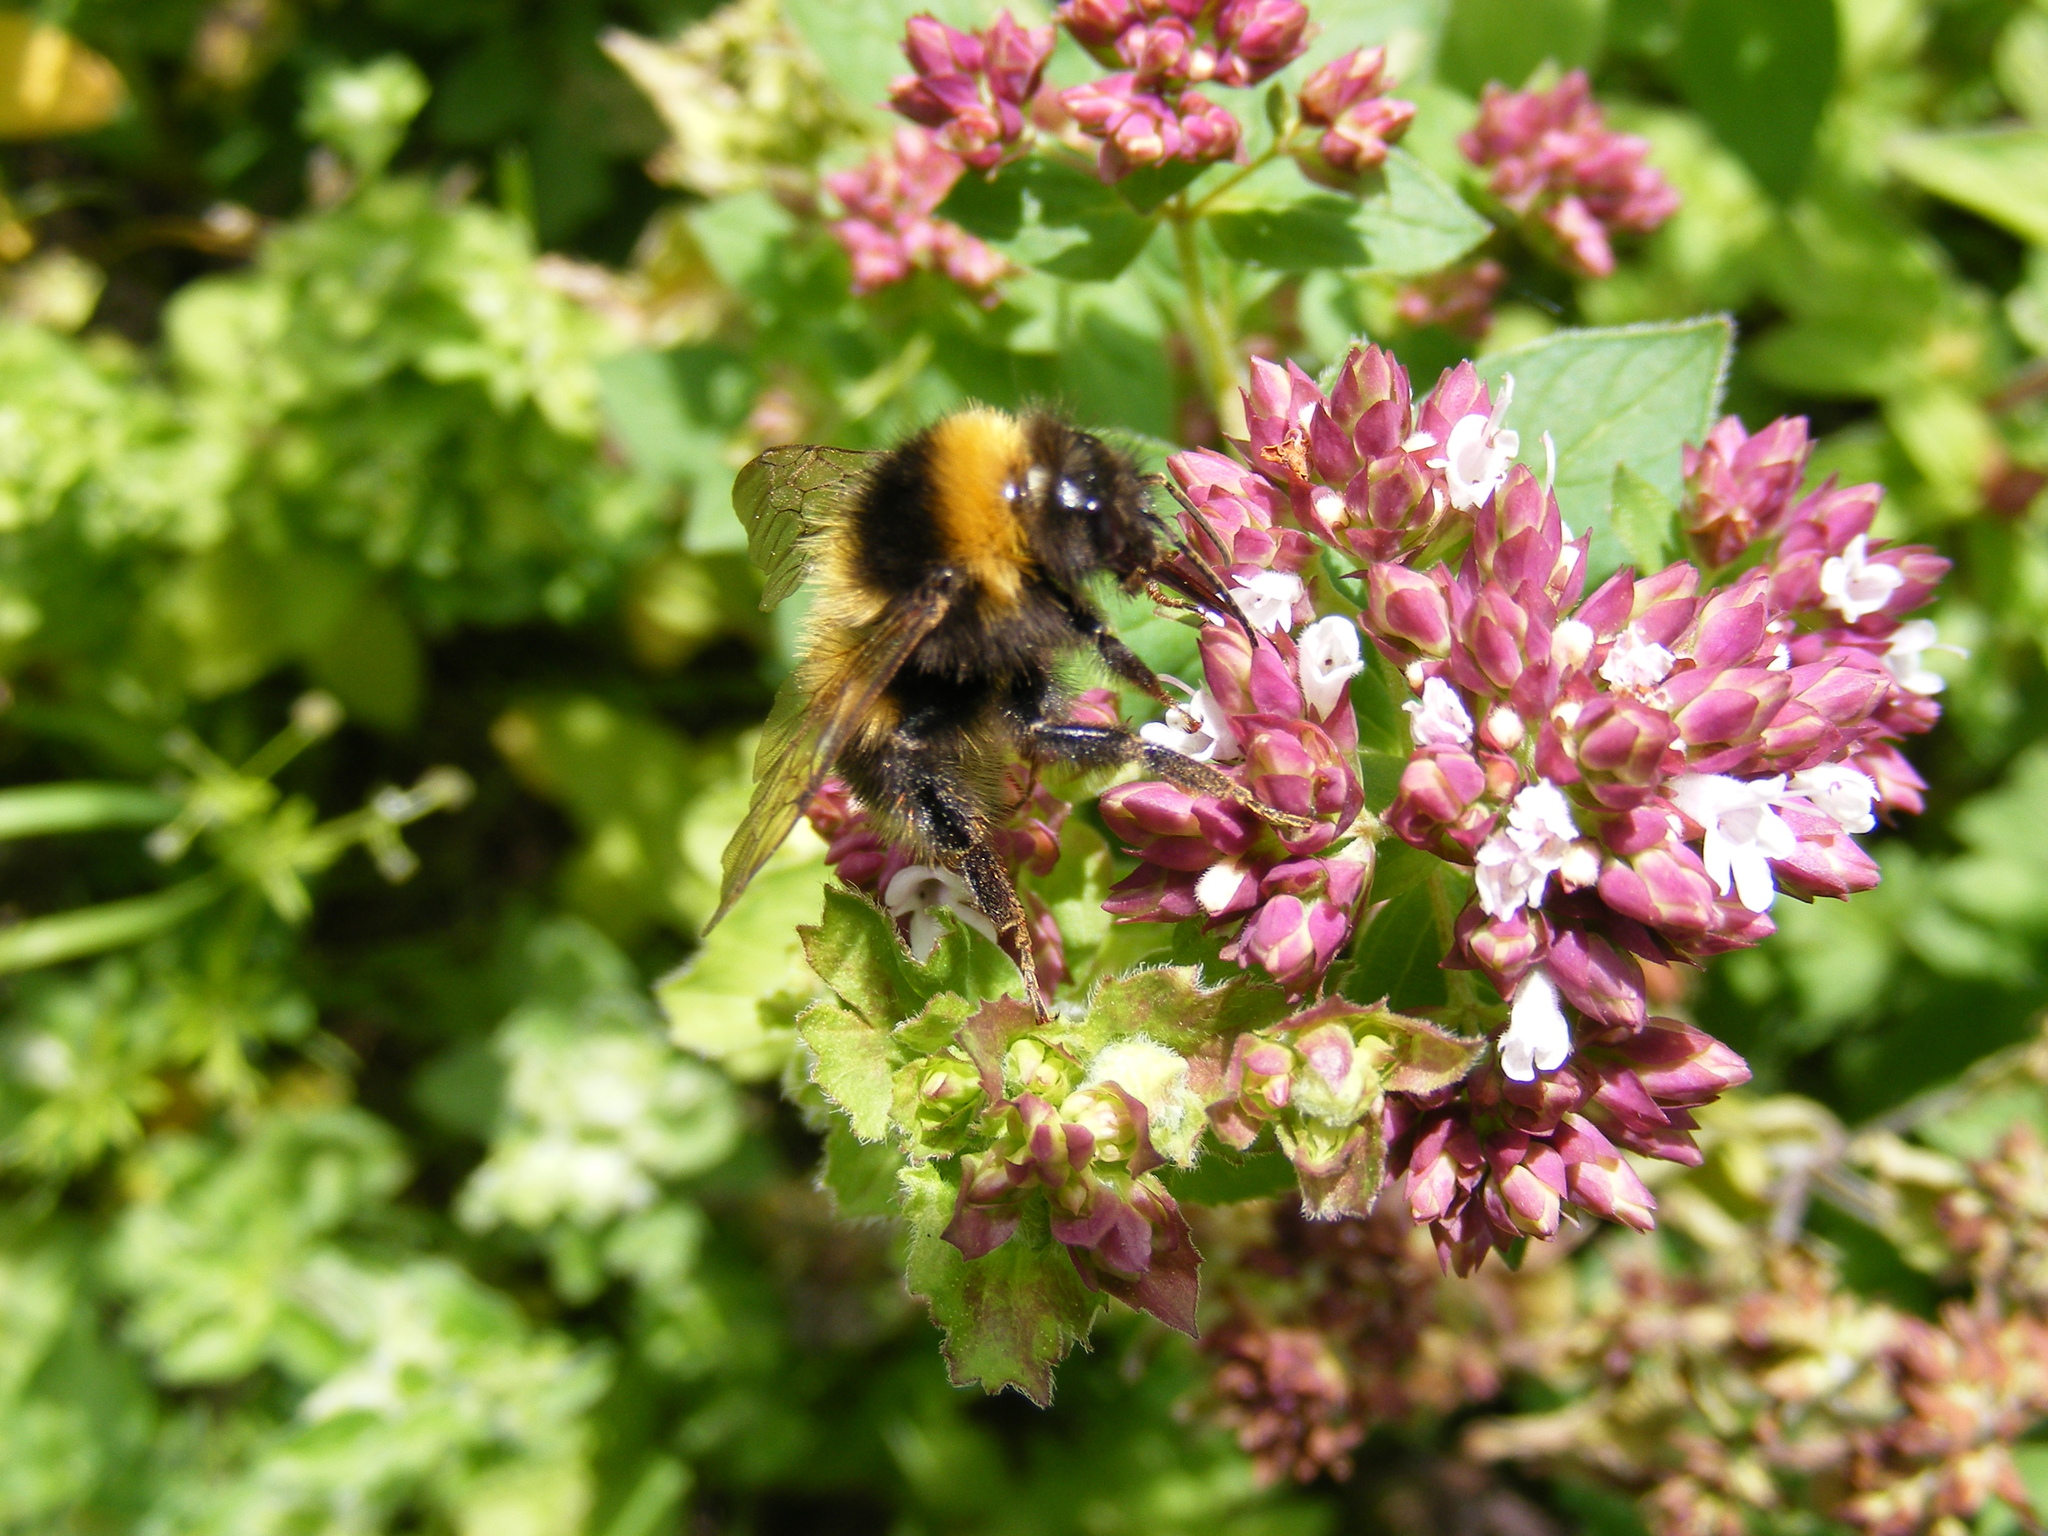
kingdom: Animalia
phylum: Arthropoda
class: Insecta
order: Hymenoptera
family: Apidae
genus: Bombus
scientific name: Bombus
